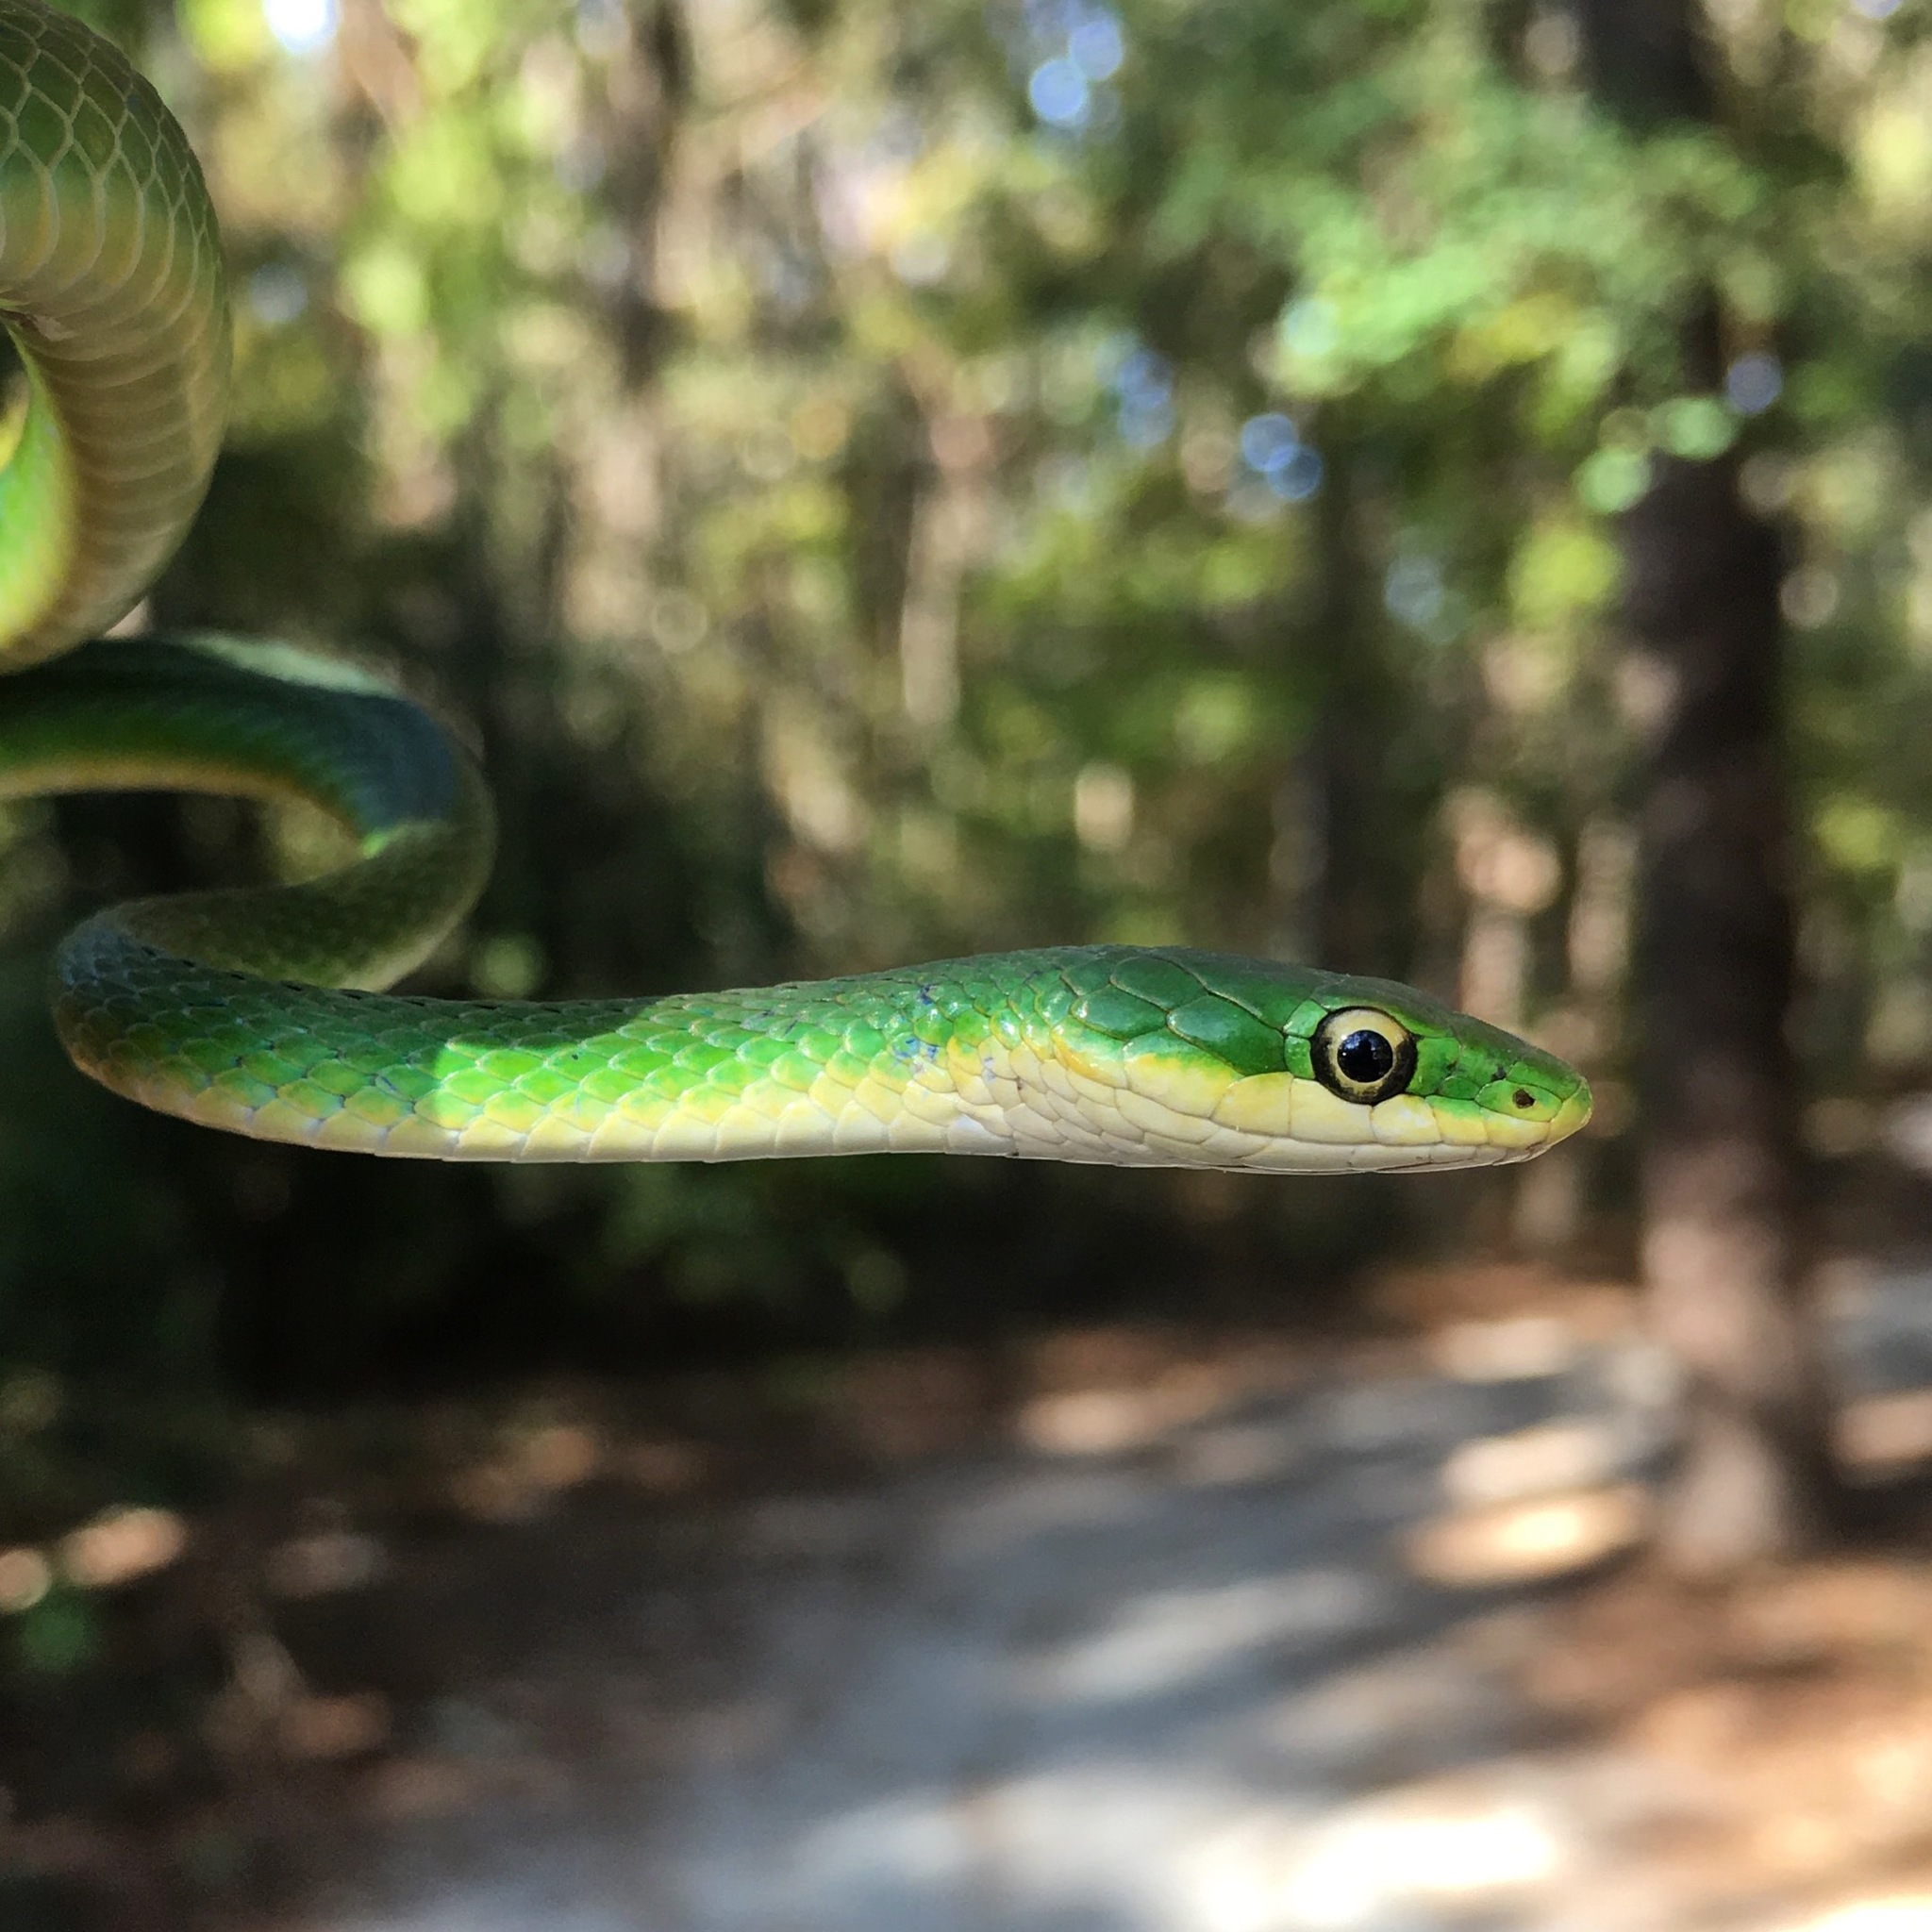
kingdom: Animalia
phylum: Chordata
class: Squamata
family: Colubridae
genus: Opheodrys
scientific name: Opheodrys aestivus
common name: Rough greensnake
